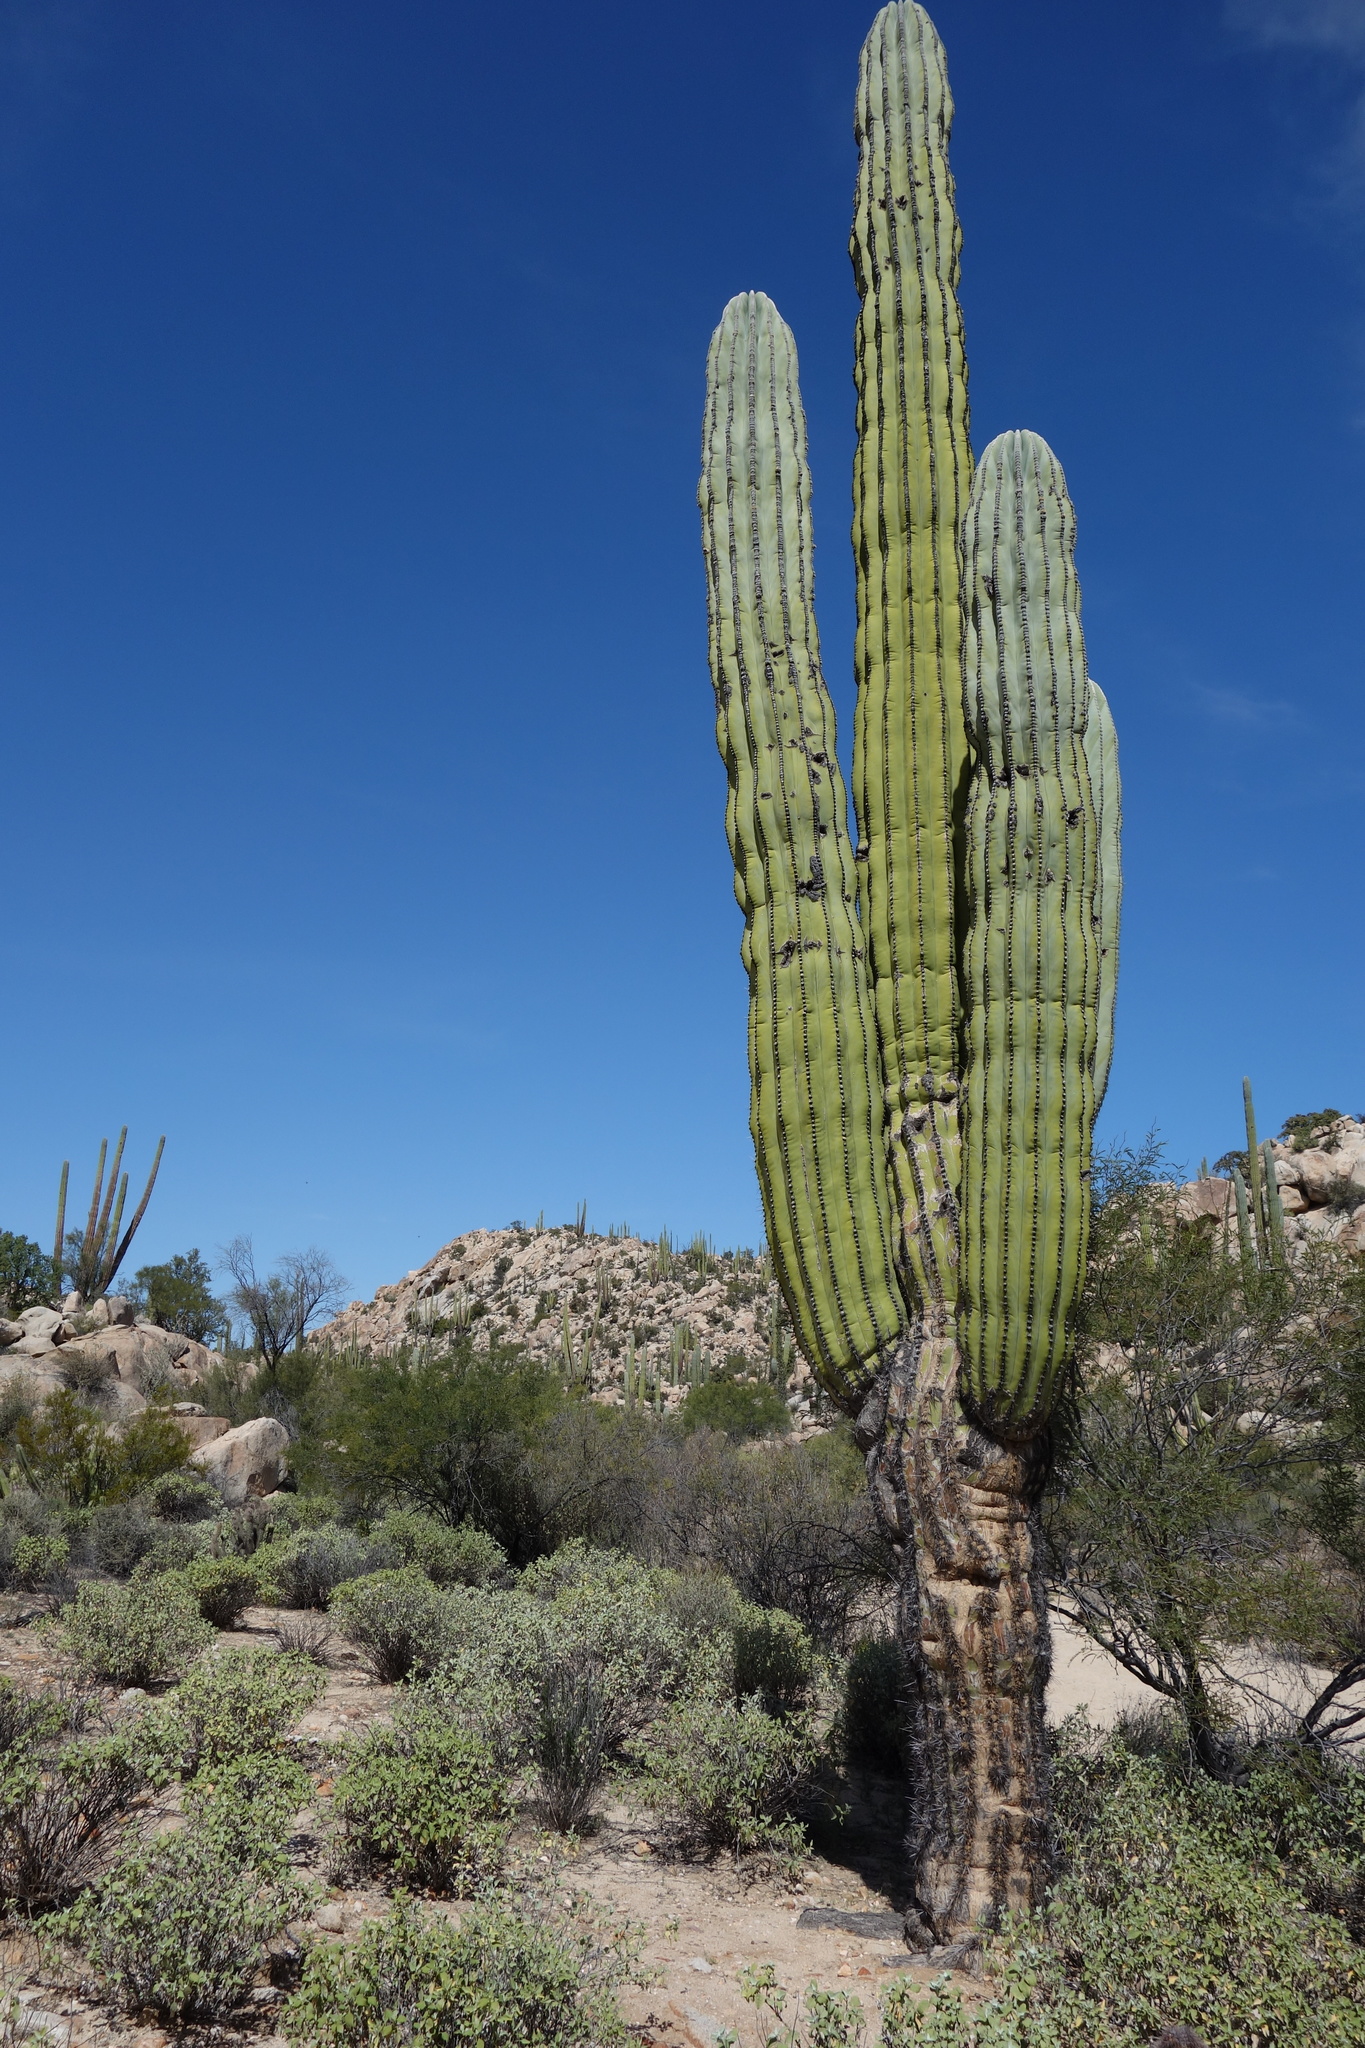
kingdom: Plantae
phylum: Tracheophyta
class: Magnoliopsida
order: Caryophyllales
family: Cactaceae
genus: Pachycereus
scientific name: Pachycereus pringlei
